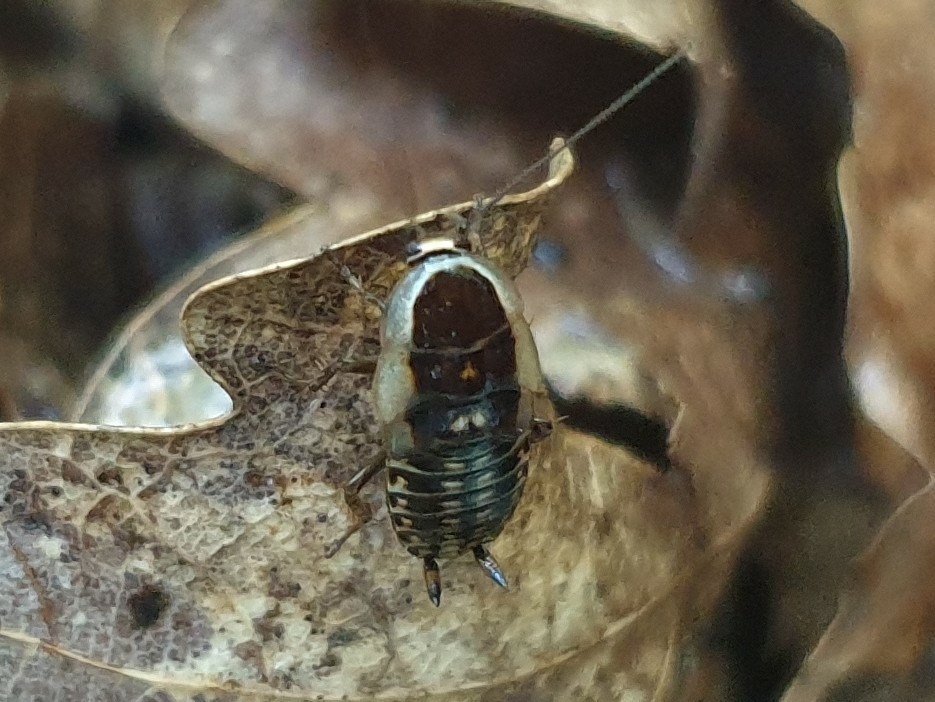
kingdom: Animalia
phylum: Arthropoda
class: Insecta
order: Blattodea
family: Ectobiidae
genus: Ectobius
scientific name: Ectobius sylvestris
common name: Forest cockroach
